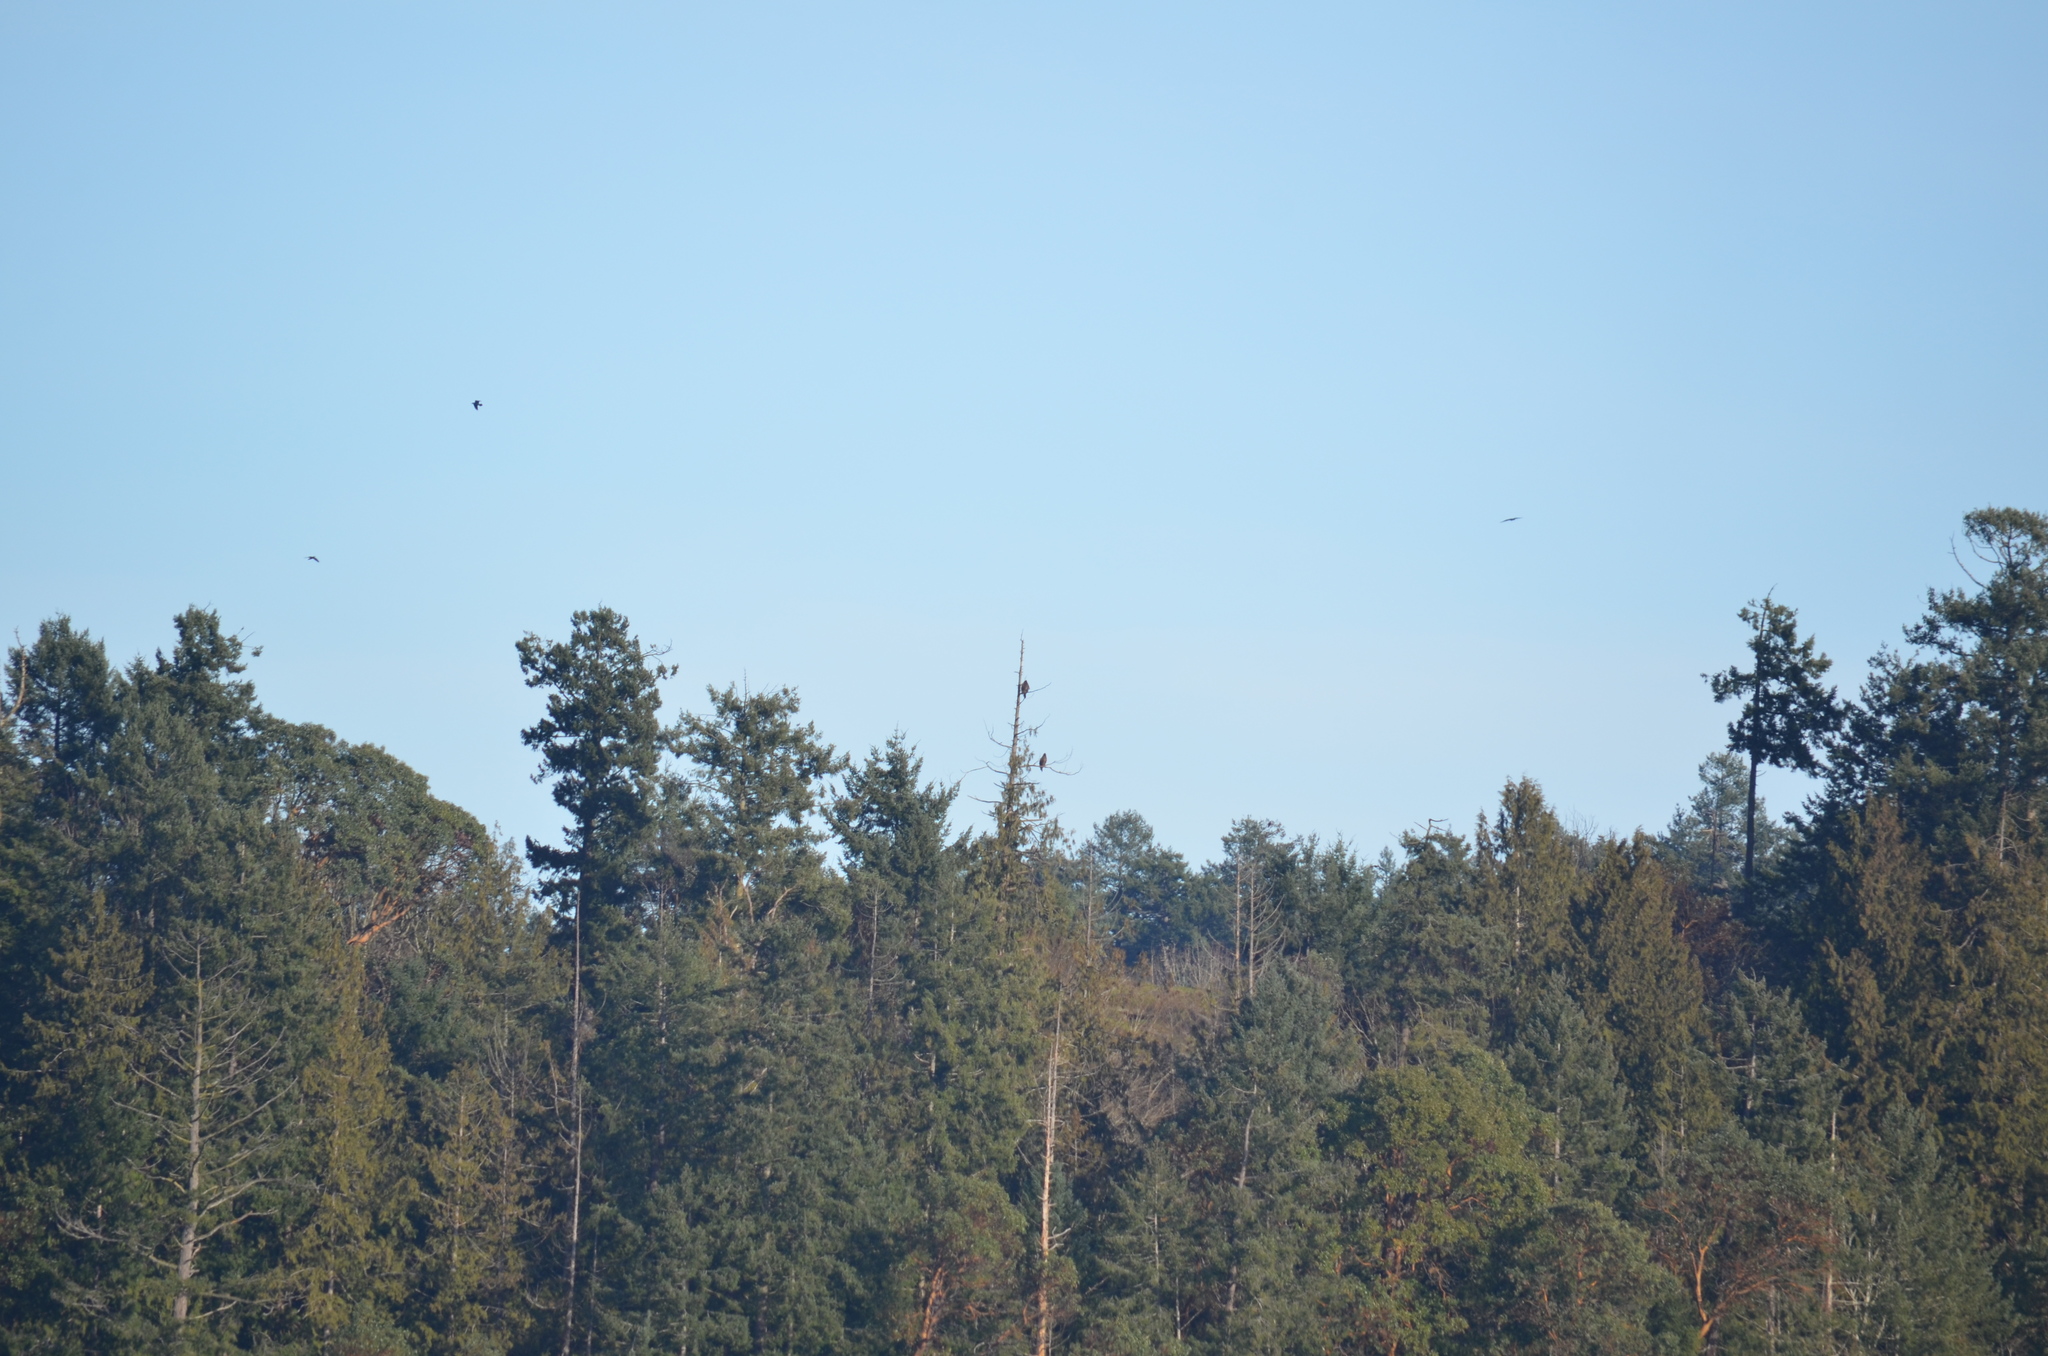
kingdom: Animalia
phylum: Chordata
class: Aves
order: Accipitriformes
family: Accipitridae
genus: Haliaeetus
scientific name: Haliaeetus leucocephalus
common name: Bald eagle
